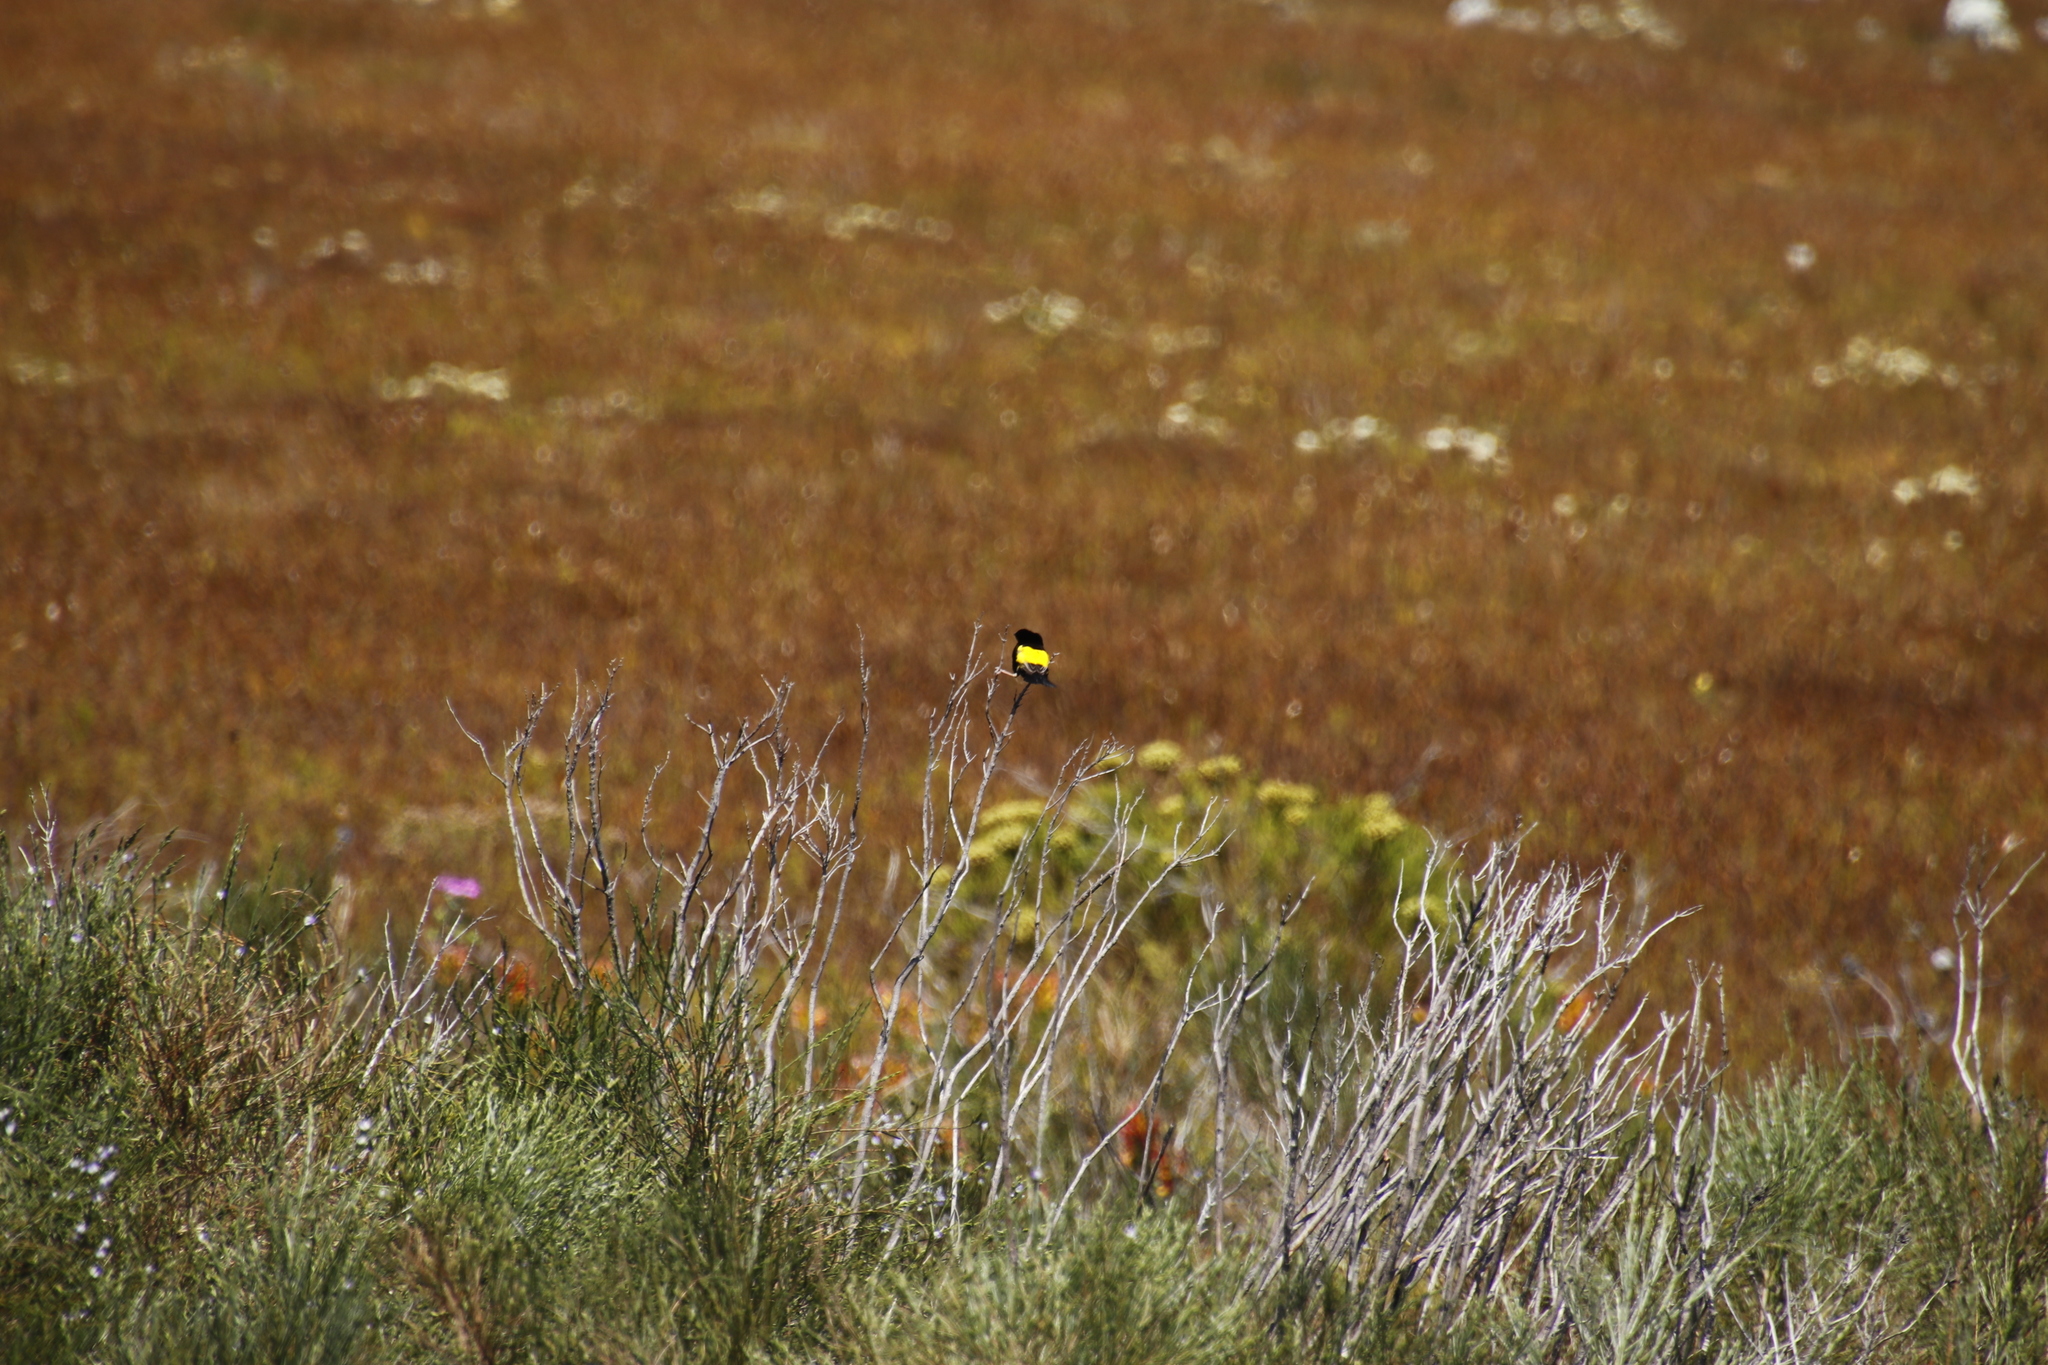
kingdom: Animalia
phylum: Chordata
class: Aves
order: Passeriformes
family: Ploceidae
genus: Euplectes
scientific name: Euplectes capensis
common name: Yellow bishop
